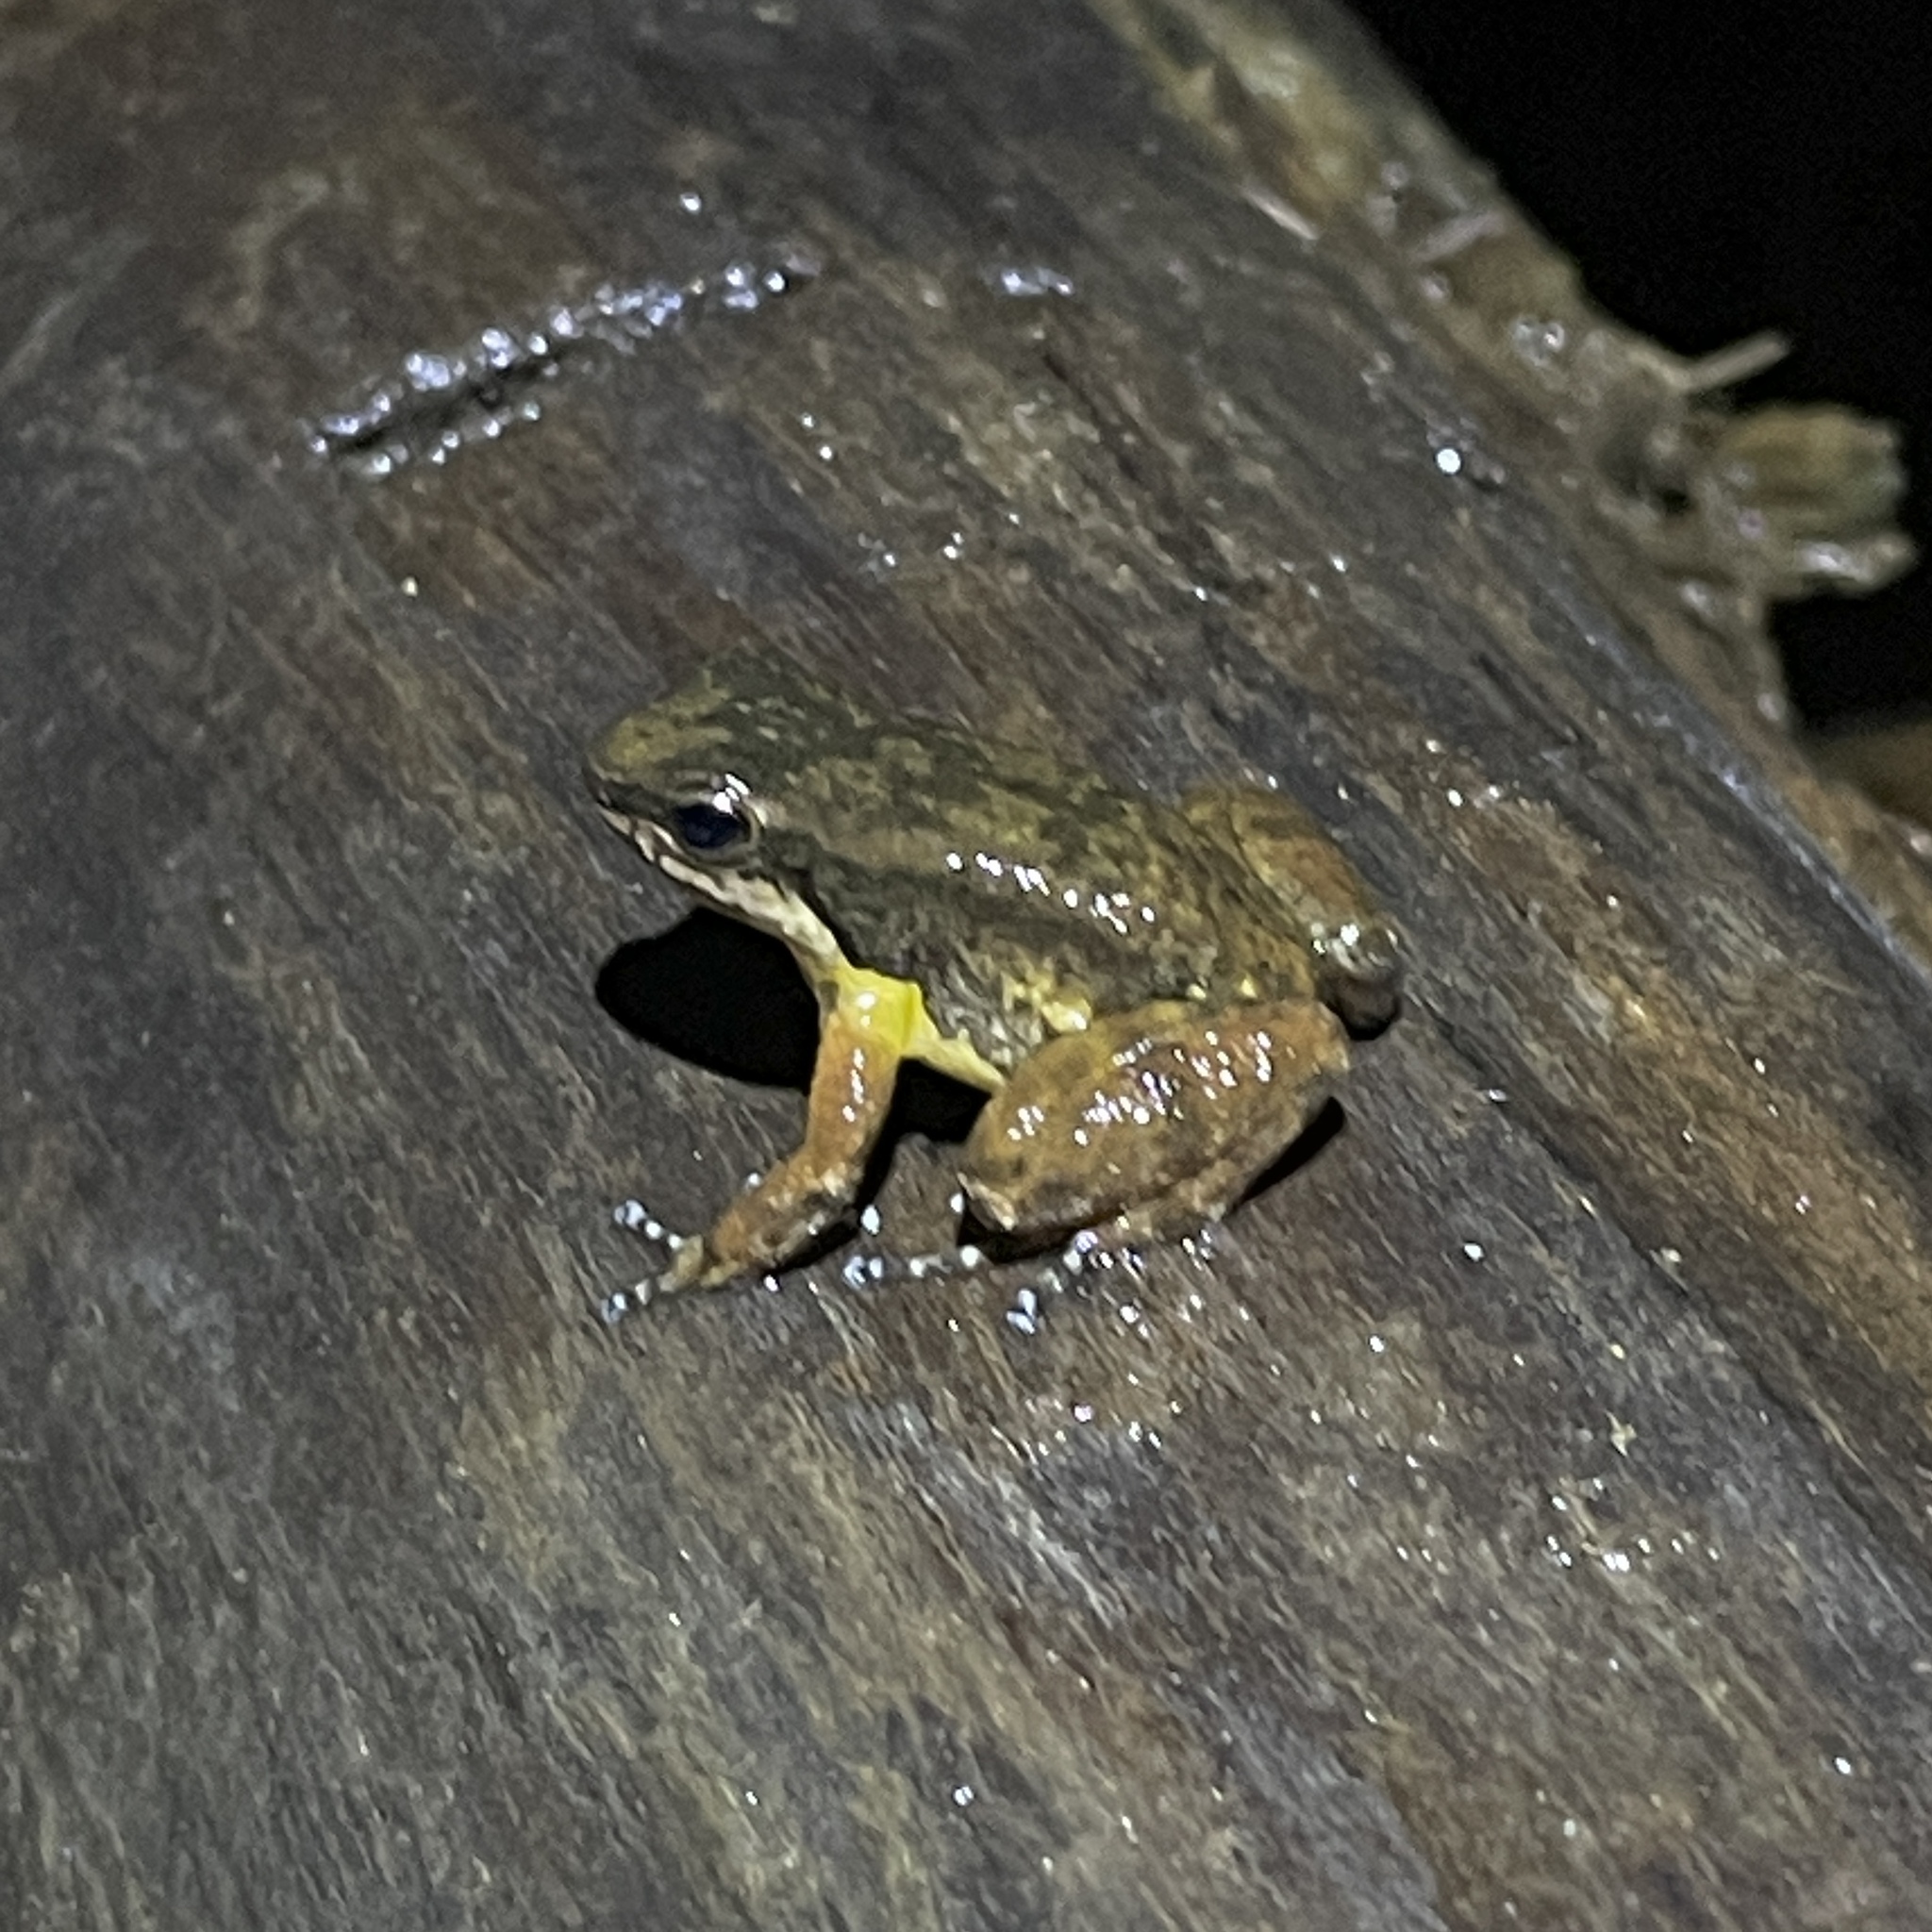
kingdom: Animalia
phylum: Chordata
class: Amphibia
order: Anura
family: Aromobatidae
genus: Mannophryne
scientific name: Mannophryne trinitatis
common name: Trinidad poison frog
